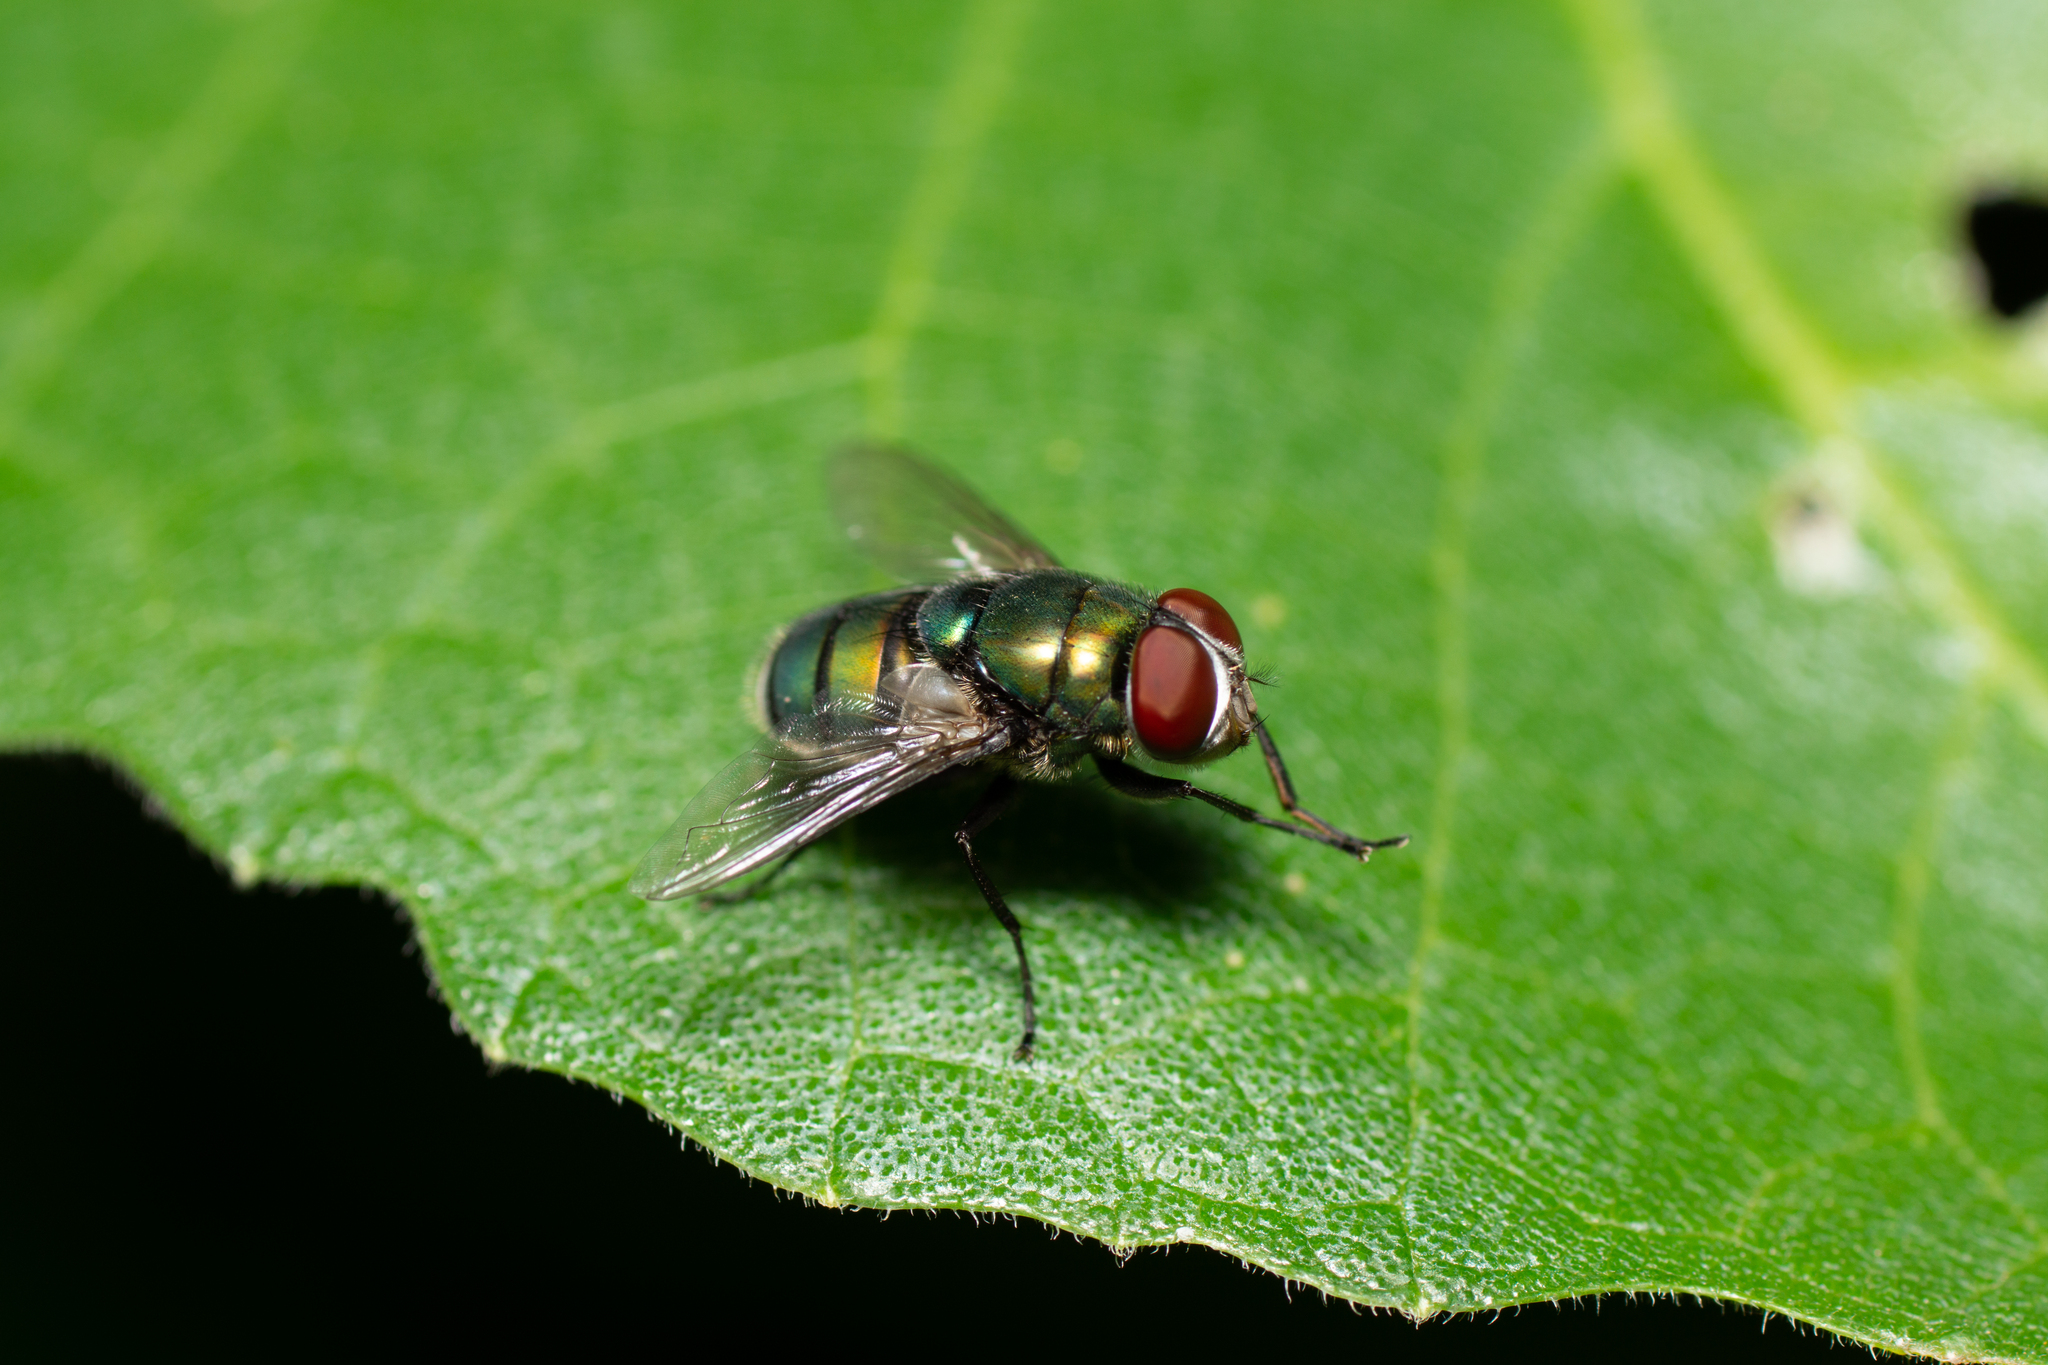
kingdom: Animalia
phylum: Arthropoda
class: Insecta
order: Diptera
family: Calliphoridae
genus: Chrysomya
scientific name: Chrysomya albiceps
